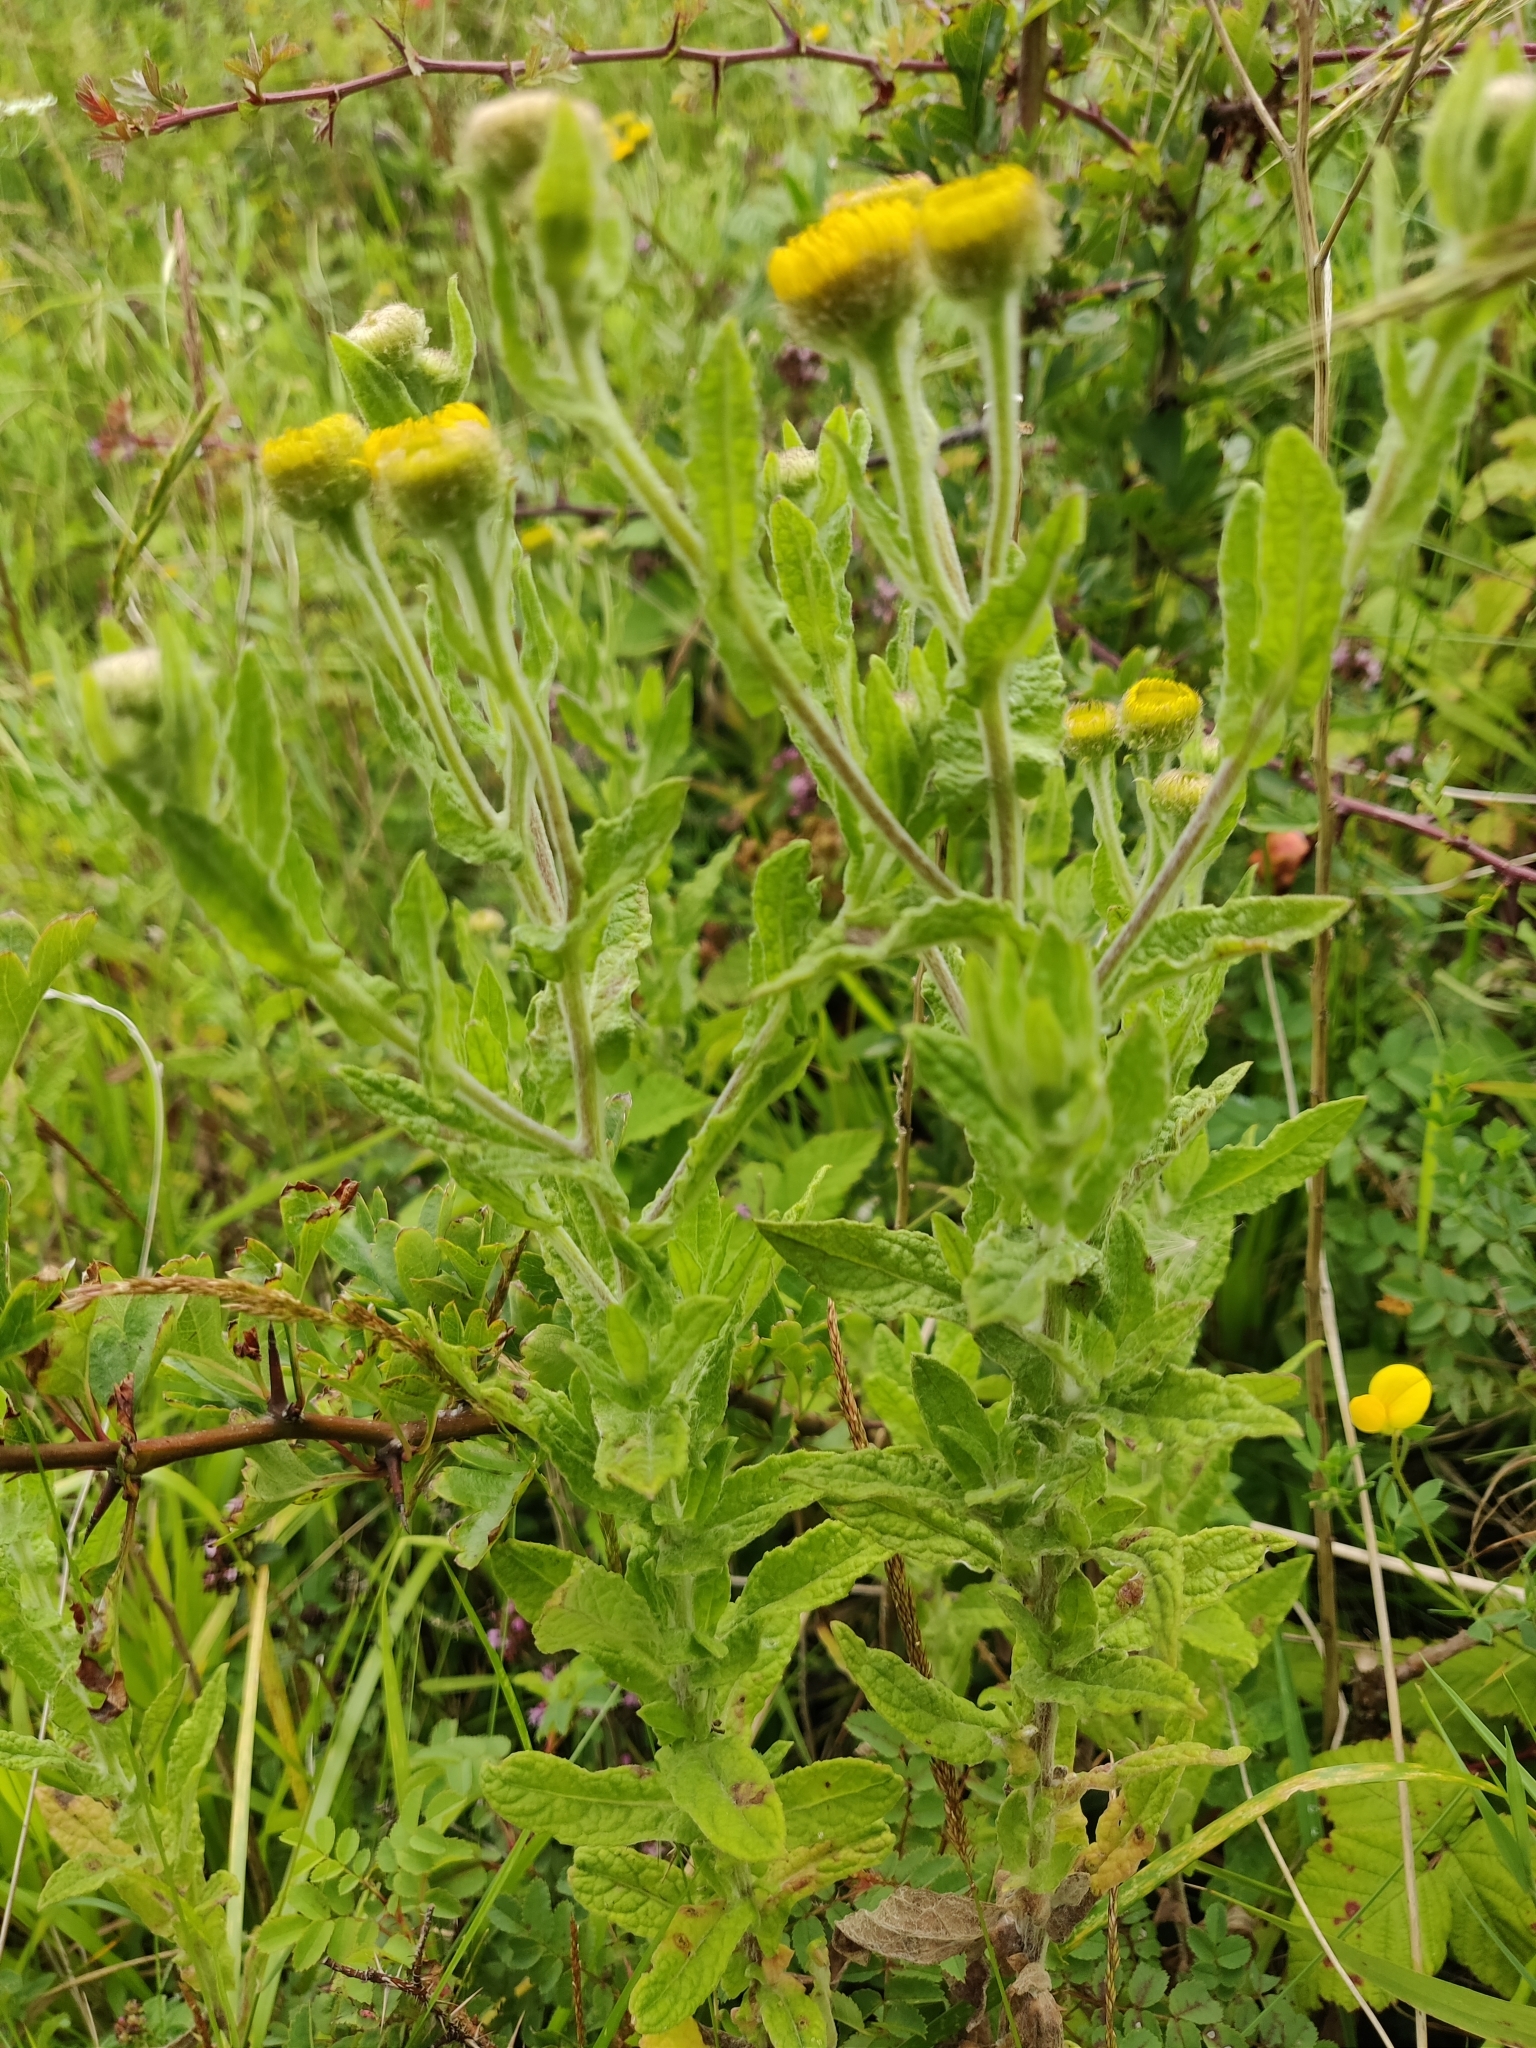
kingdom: Plantae
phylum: Tracheophyta
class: Magnoliopsida
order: Asterales
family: Asteraceae
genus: Pulicaria
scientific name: Pulicaria dysenterica
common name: Common fleabane
